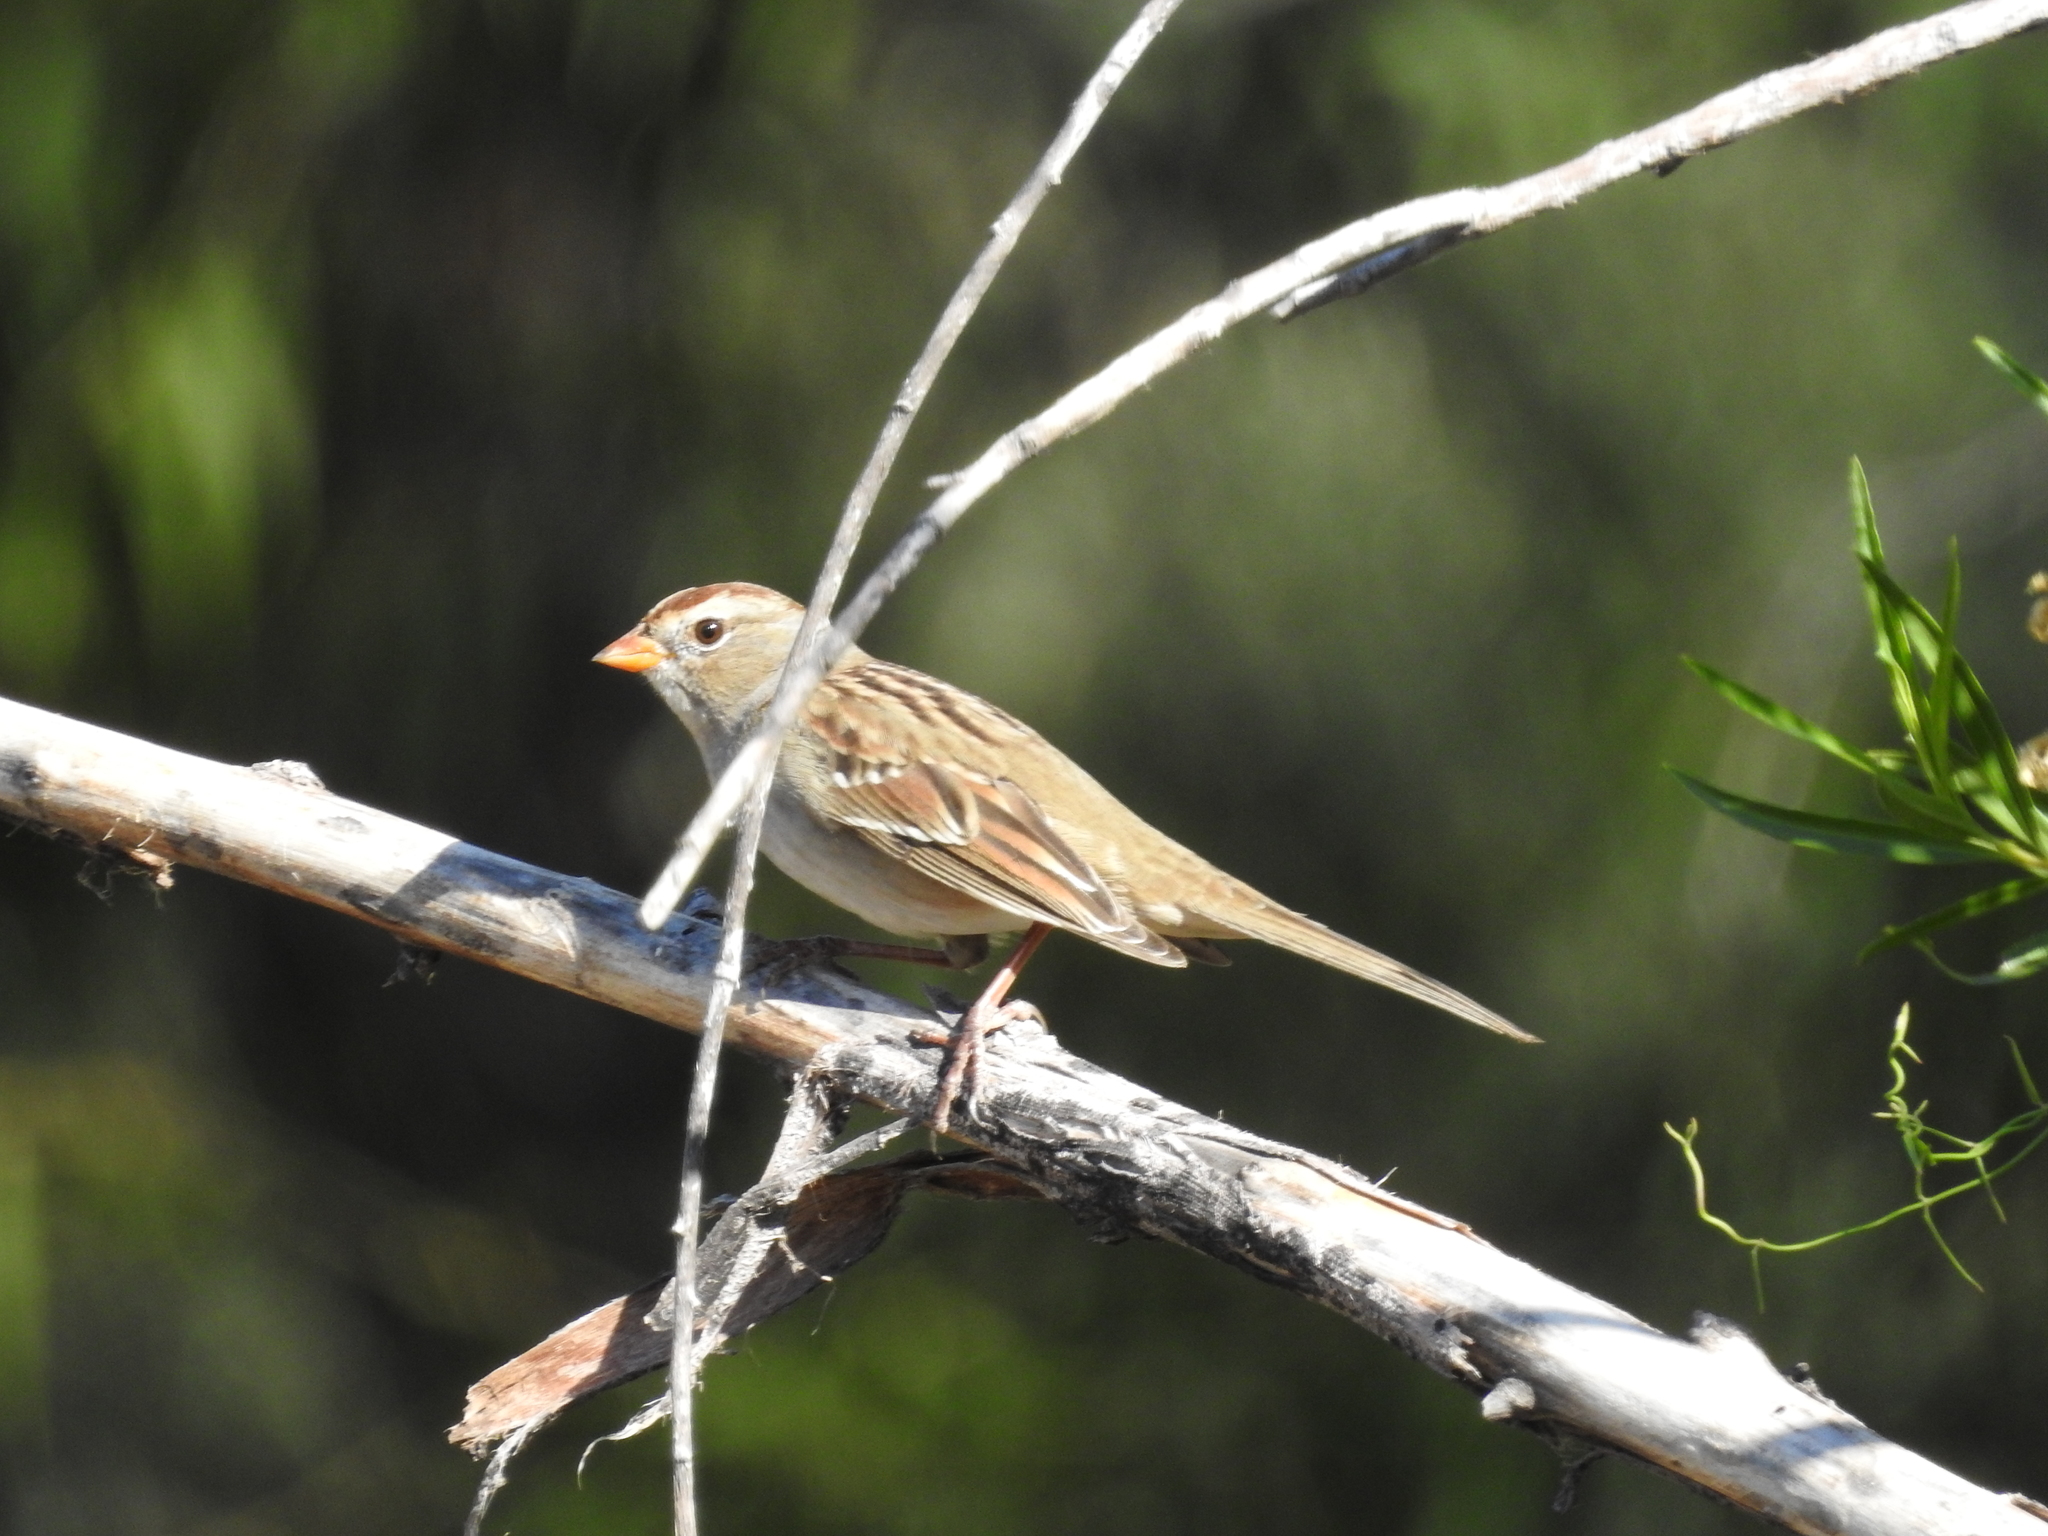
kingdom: Animalia
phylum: Chordata
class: Aves
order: Passeriformes
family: Passerellidae
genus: Zonotrichia
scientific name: Zonotrichia leucophrys
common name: White-crowned sparrow
